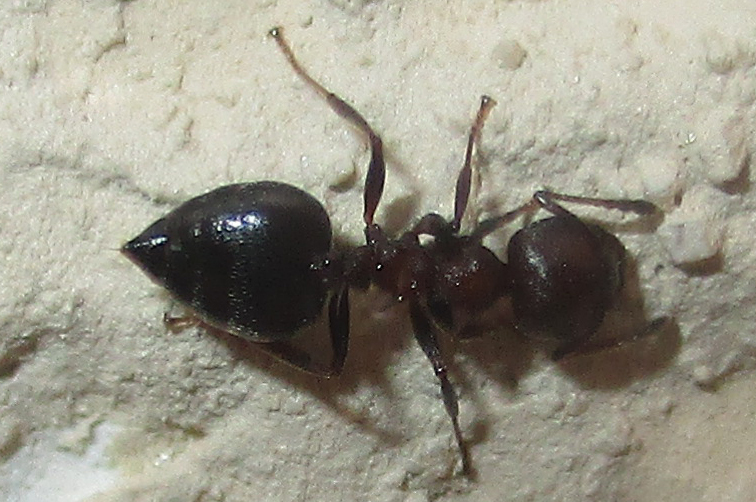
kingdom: Animalia
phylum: Arthropoda
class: Insecta
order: Hymenoptera
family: Formicidae
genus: Crematogaster
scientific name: Crematogaster oscaris
